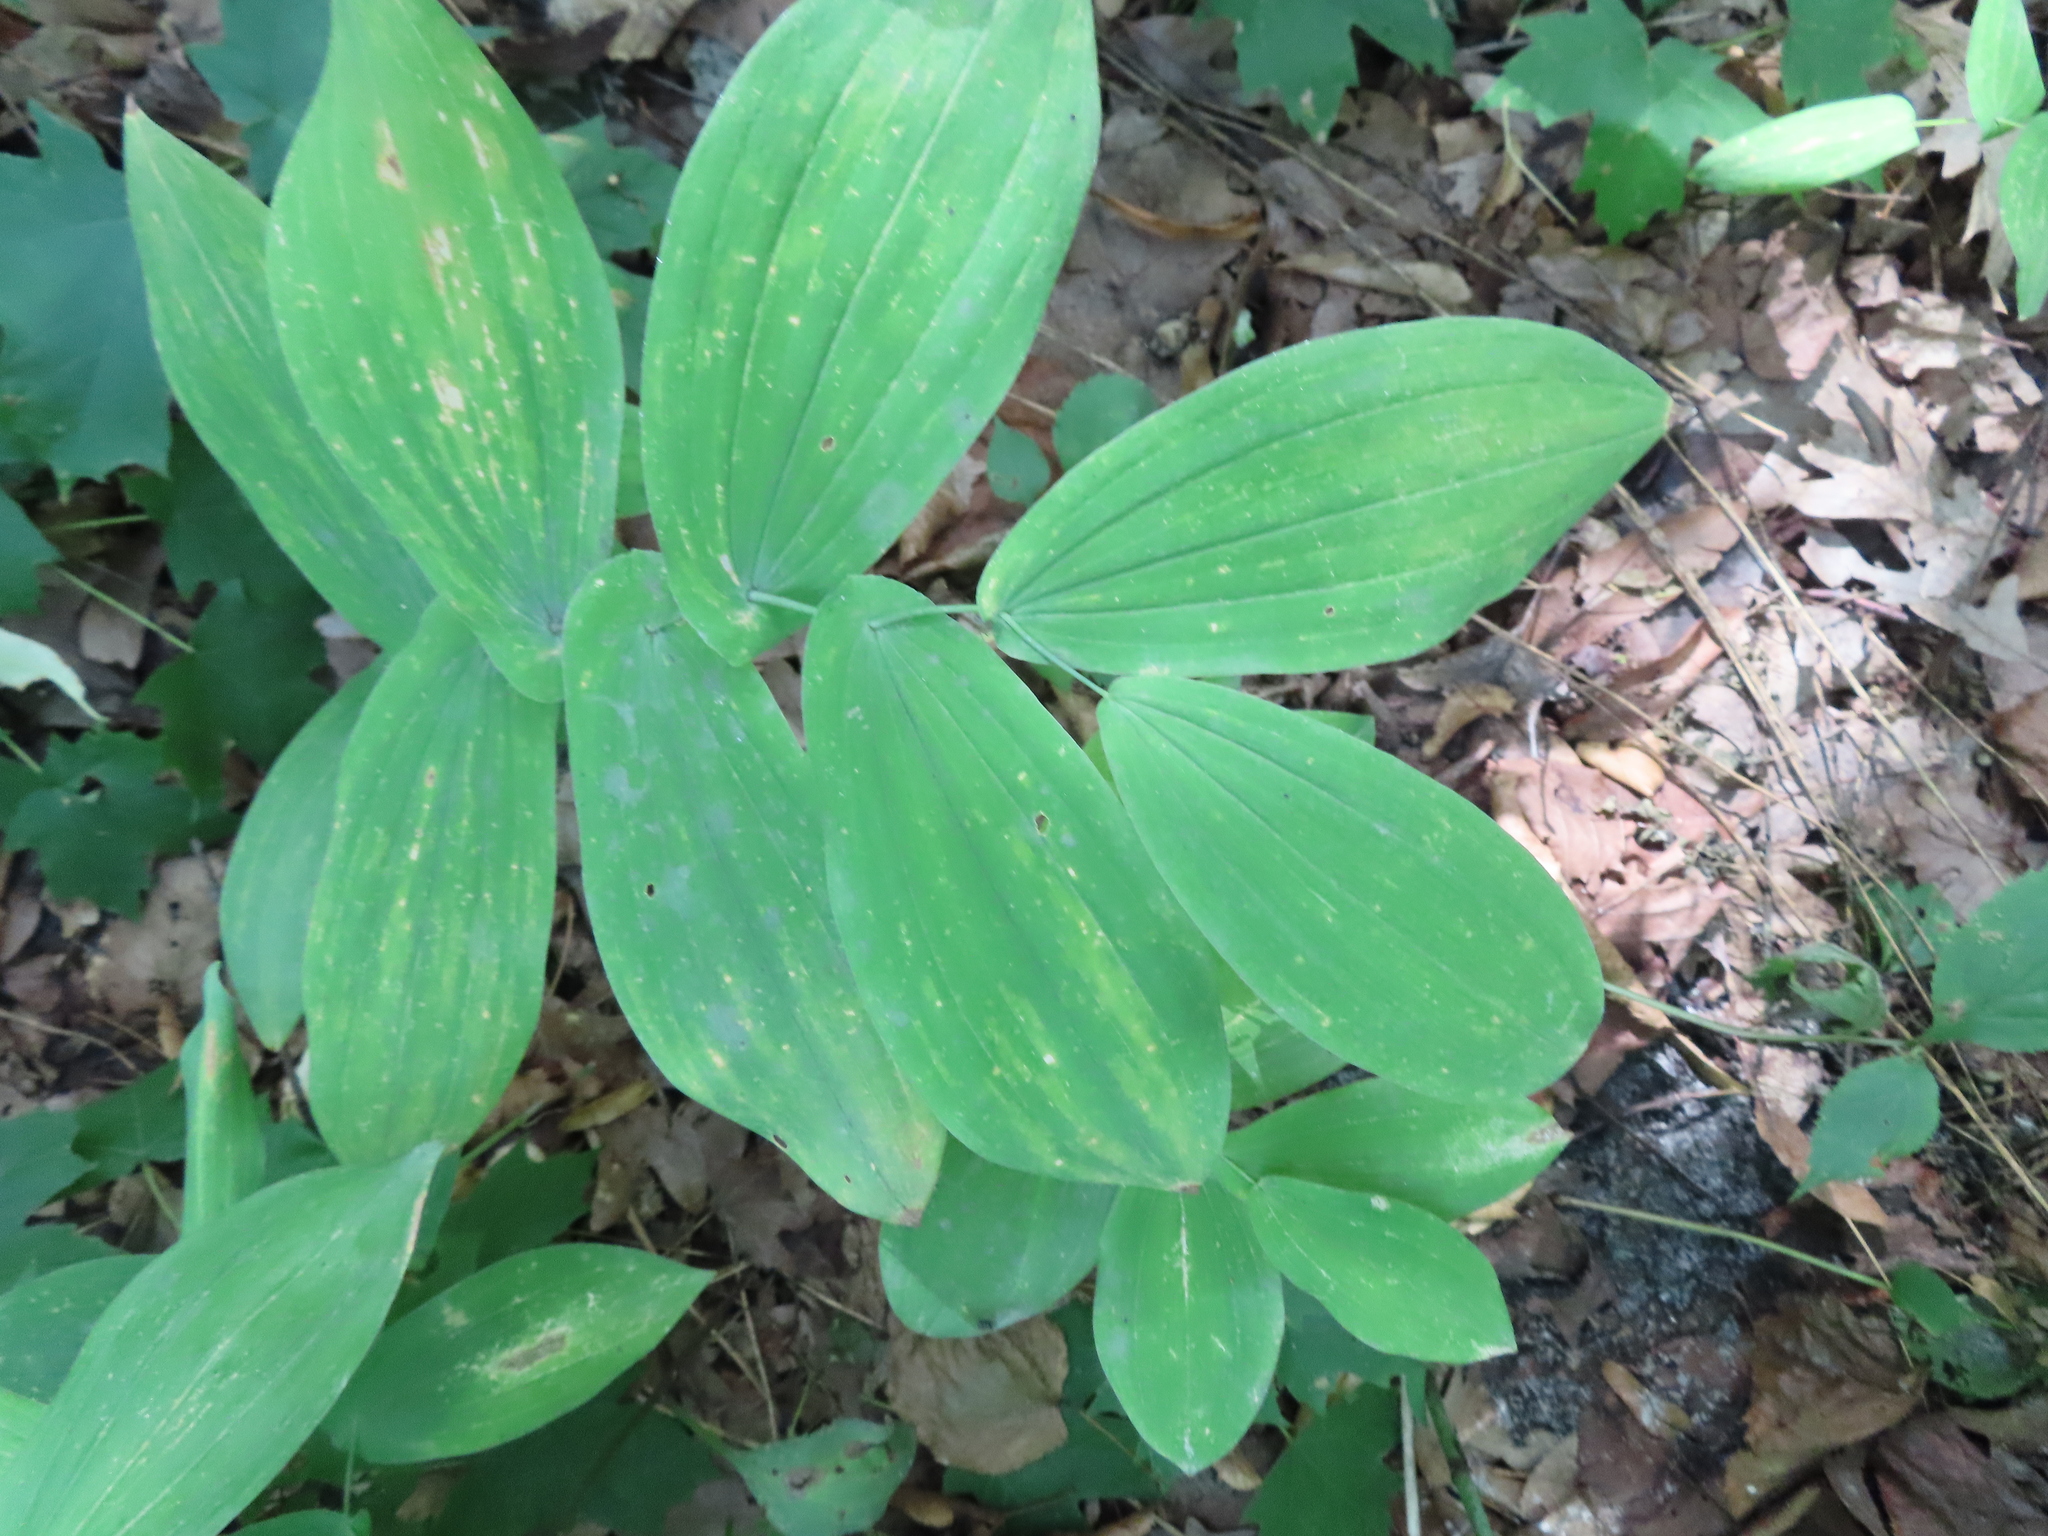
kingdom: Plantae
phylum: Tracheophyta
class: Liliopsida
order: Liliales
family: Colchicaceae
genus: Uvularia
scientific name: Uvularia grandiflora
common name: Bellwort
